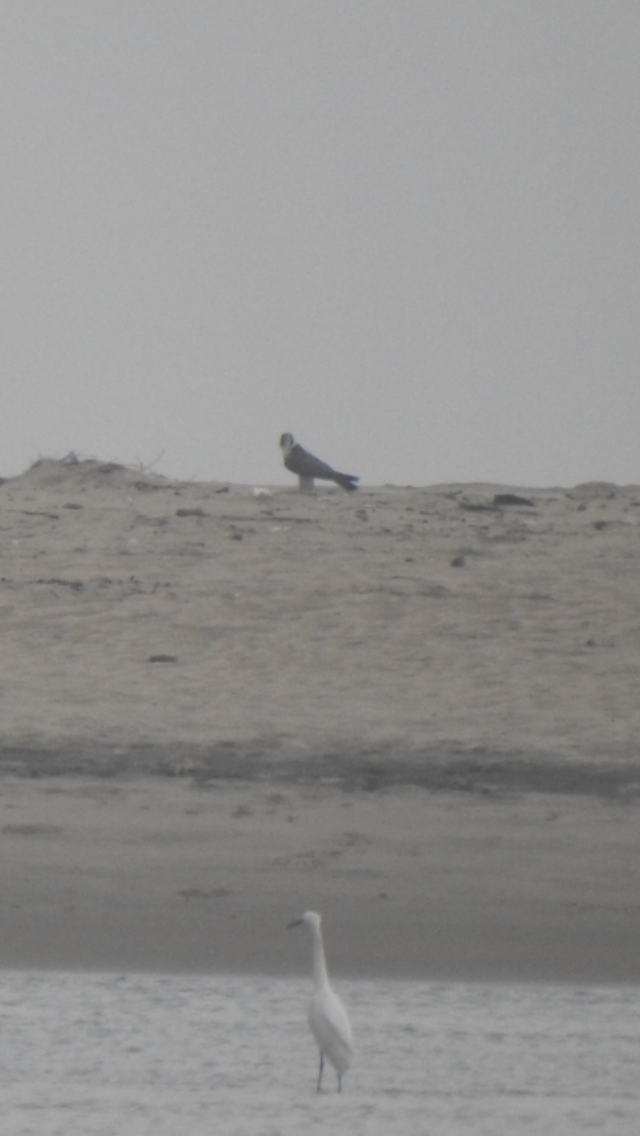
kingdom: Animalia
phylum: Chordata
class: Aves
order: Falconiformes
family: Falconidae
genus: Falco
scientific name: Falco peregrinus
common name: Peregrine falcon
